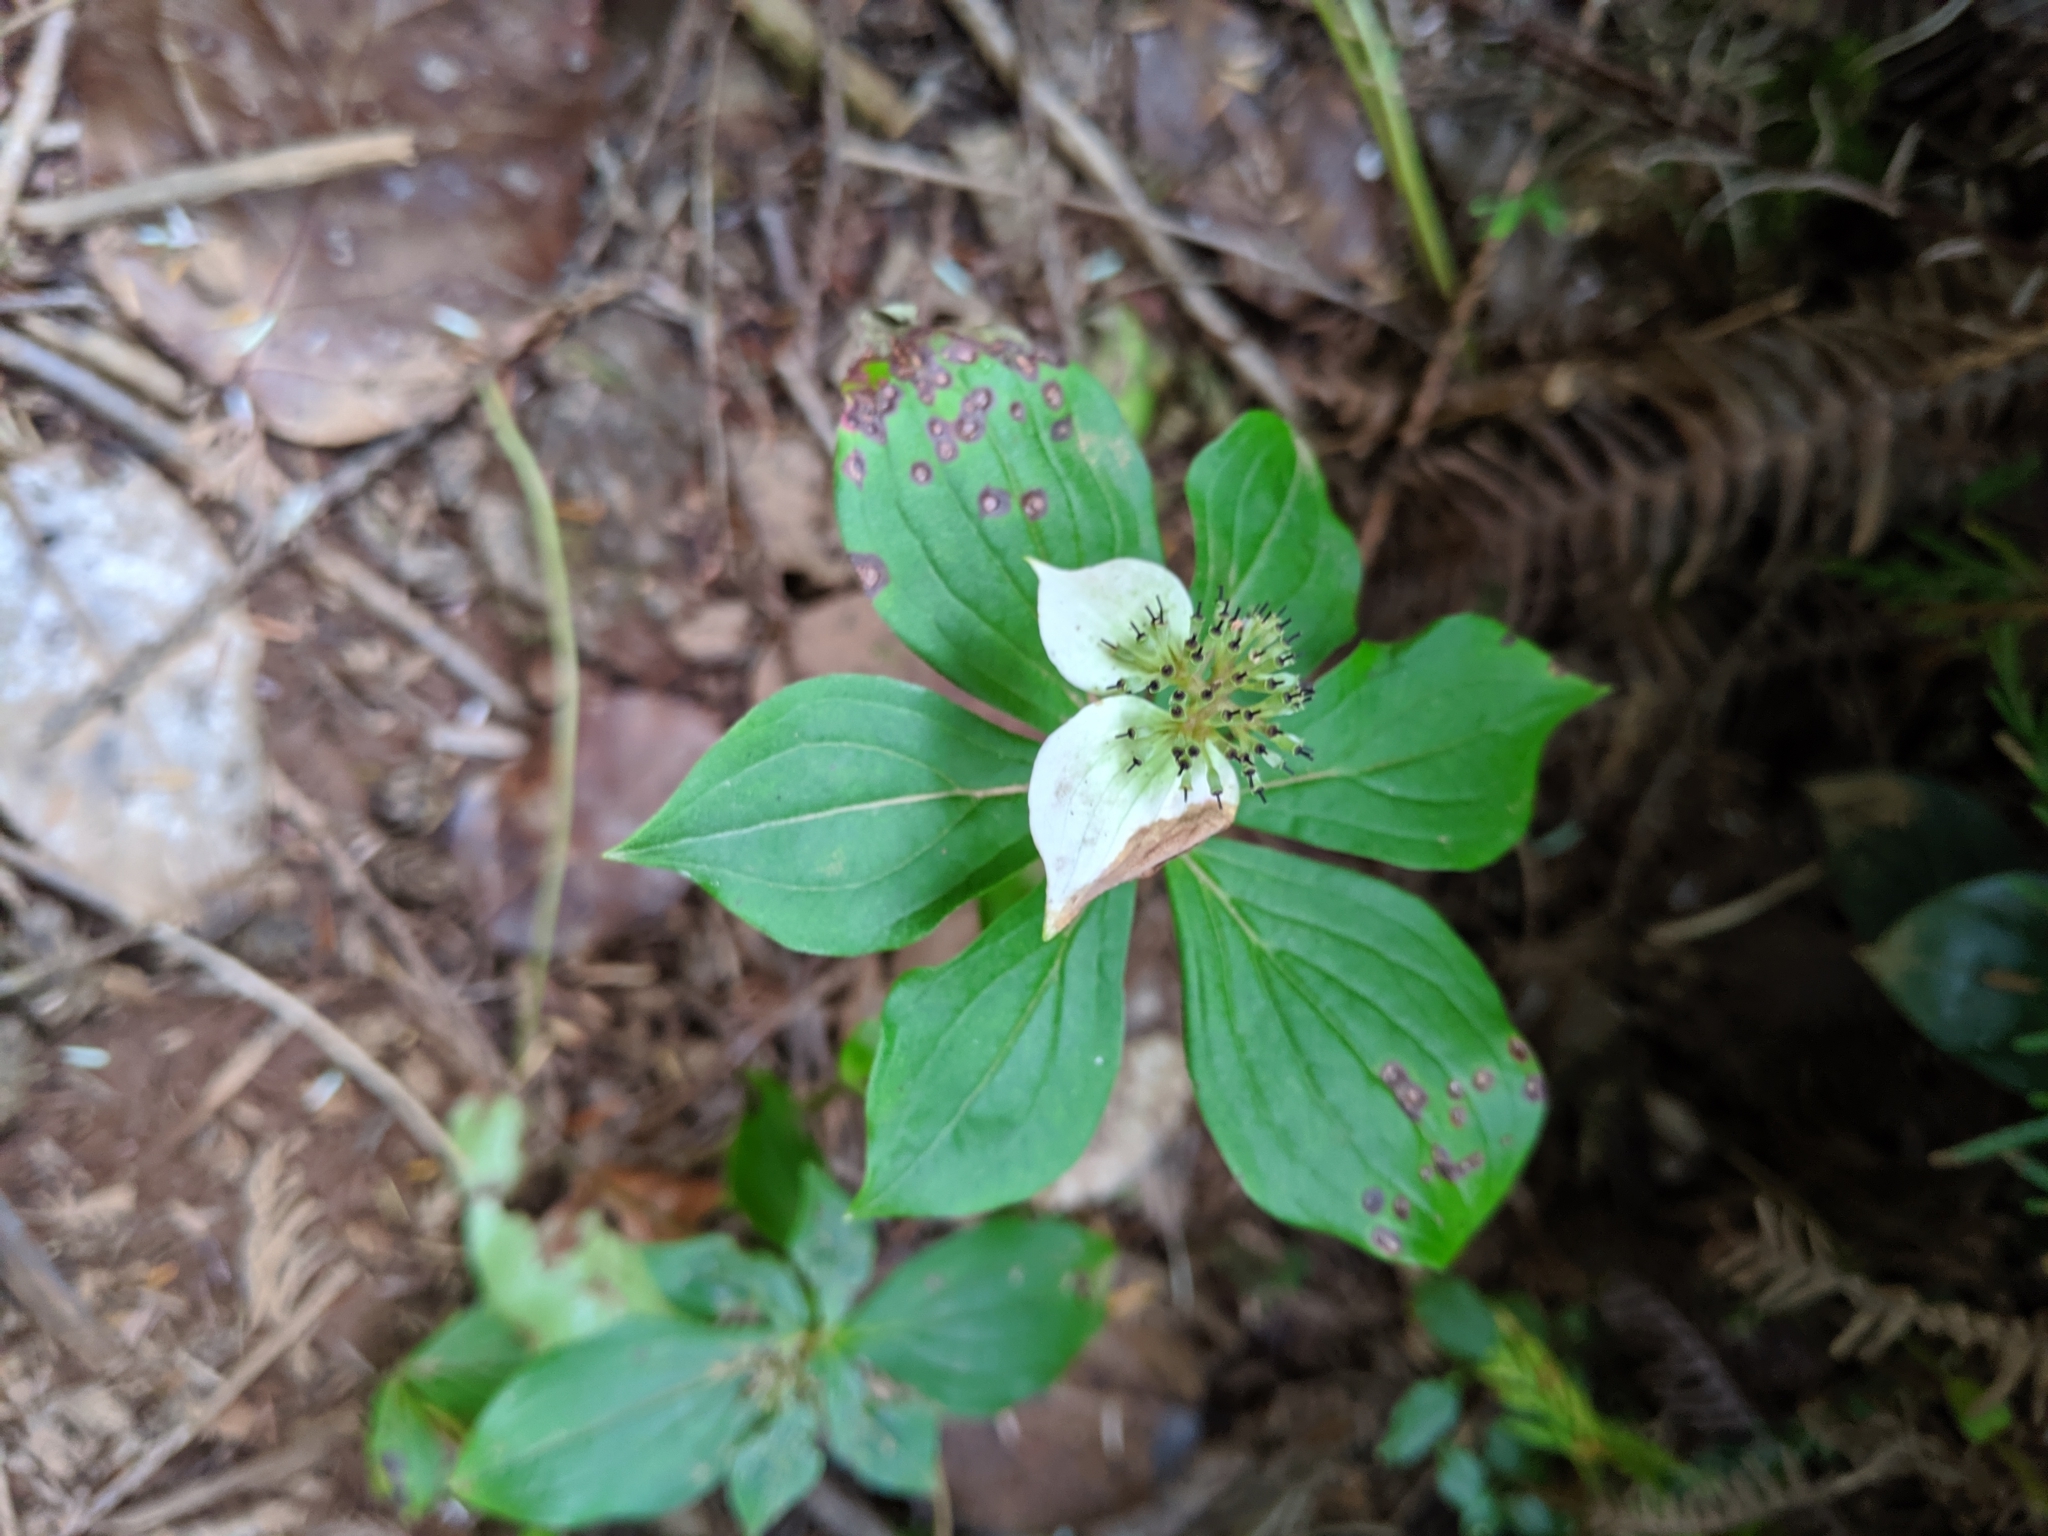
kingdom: Plantae
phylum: Tracheophyta
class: Magnoliopsida
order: Cornales
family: Cornaceae
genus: Cornus
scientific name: Cornus unalaschkensis
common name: Alaska bunchberry
